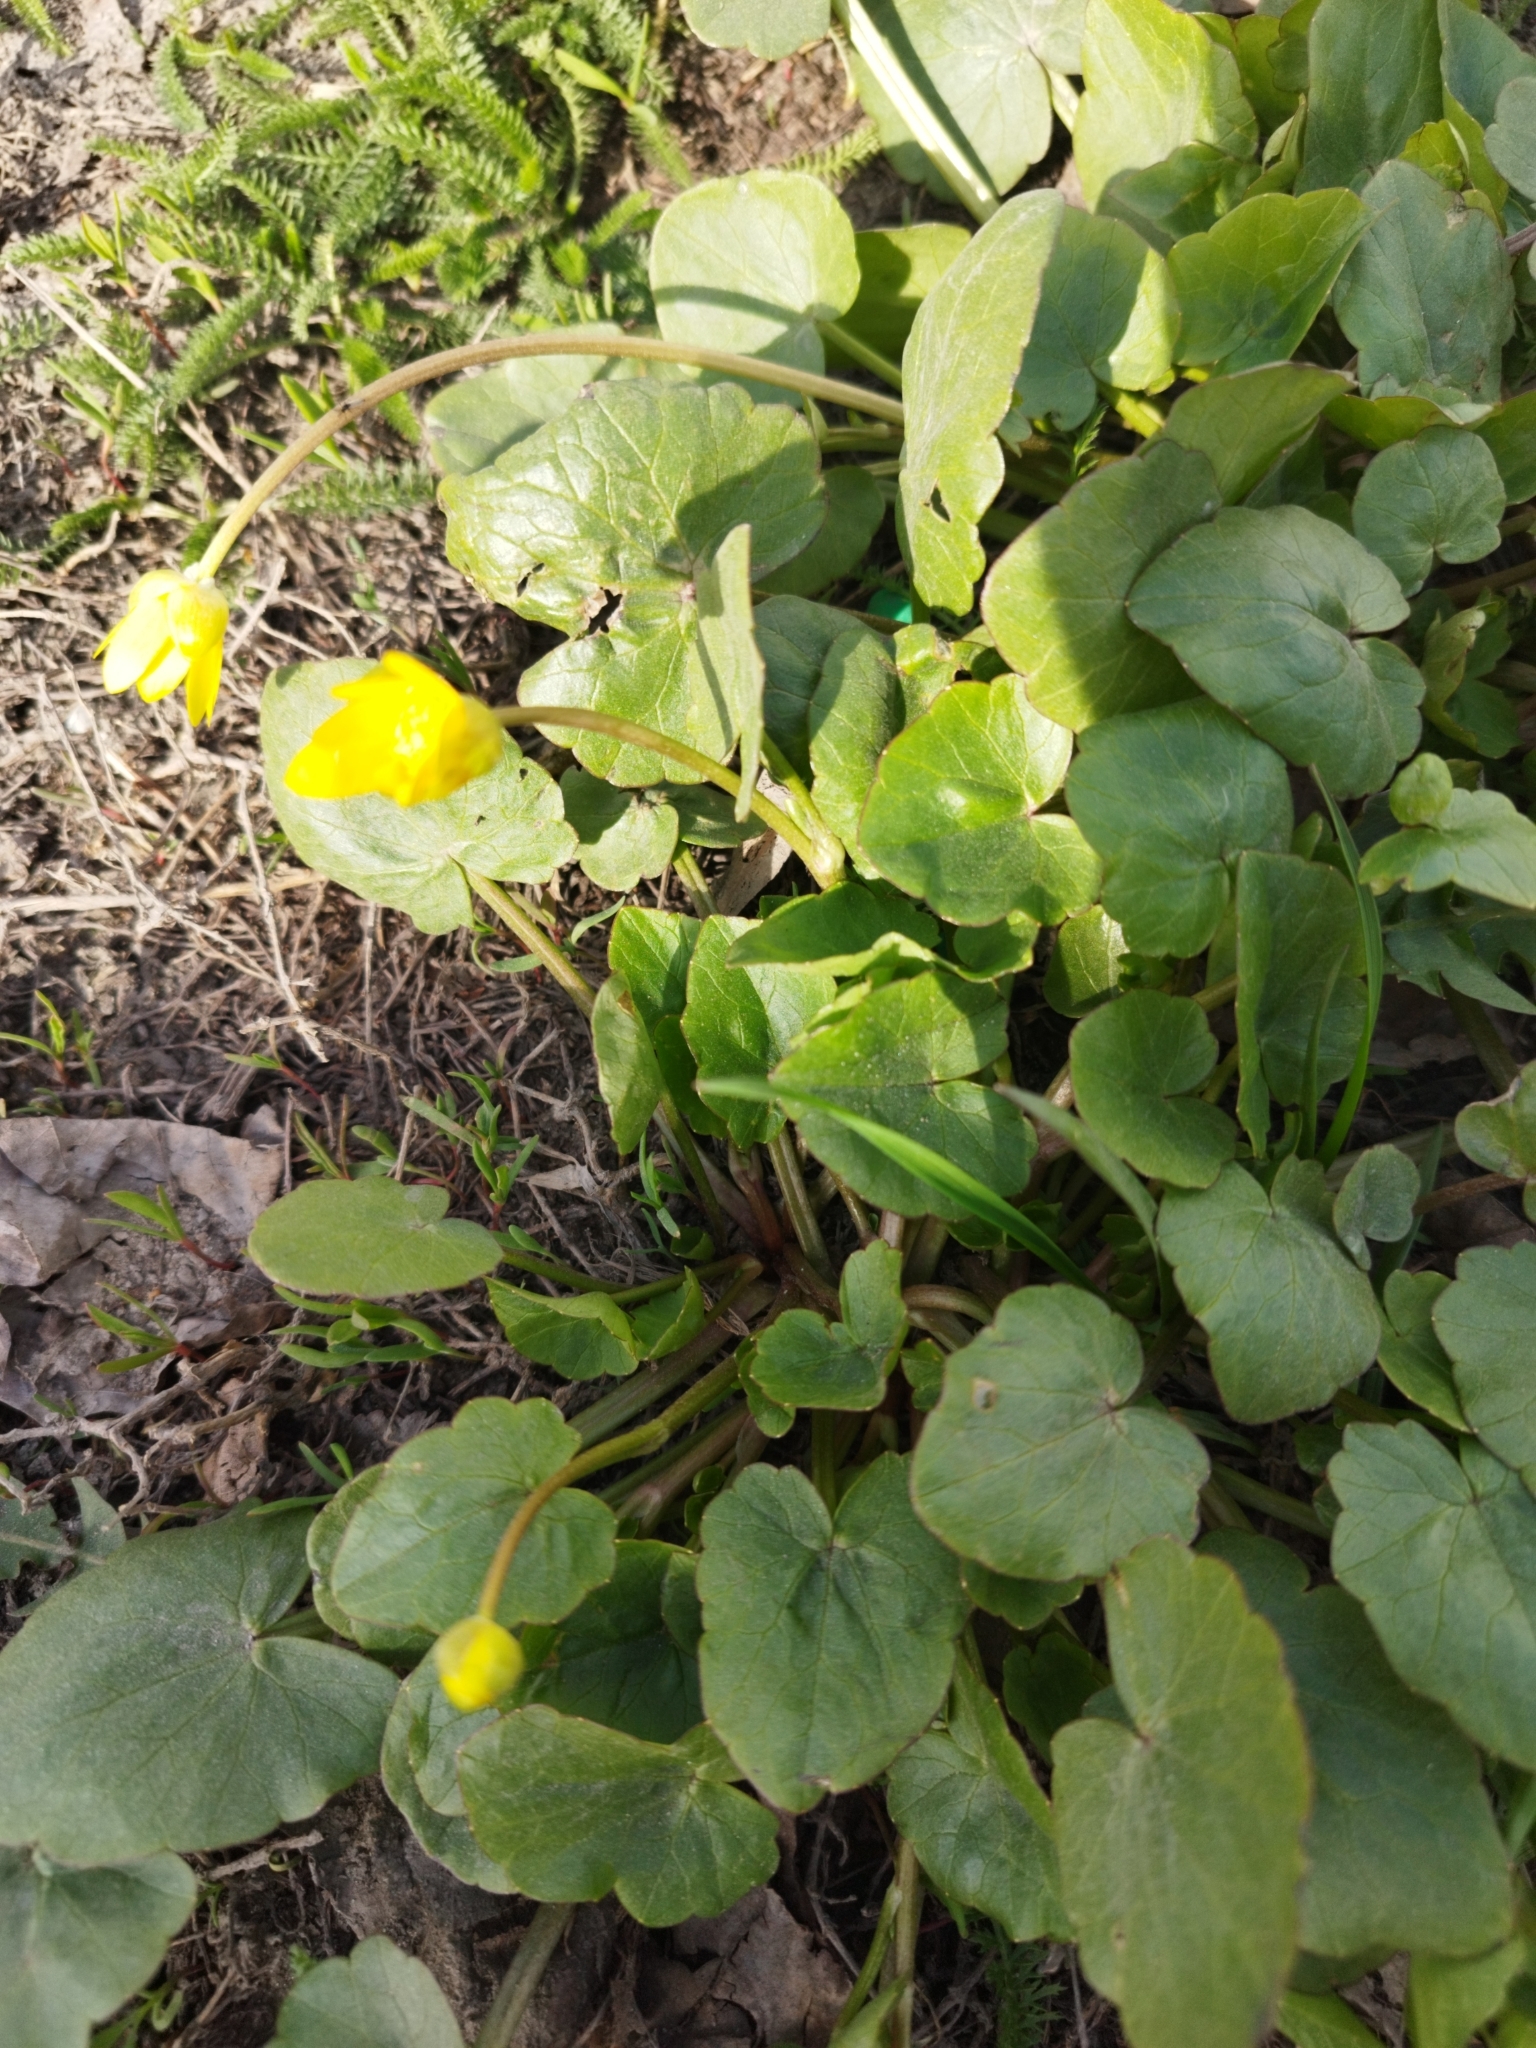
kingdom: Plantae
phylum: Tracheophyta
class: Magnoliopsida
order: Ranunculales
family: Ranunculaceae
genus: Ficaria
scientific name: Ficaria verna
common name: Lesser celandine
